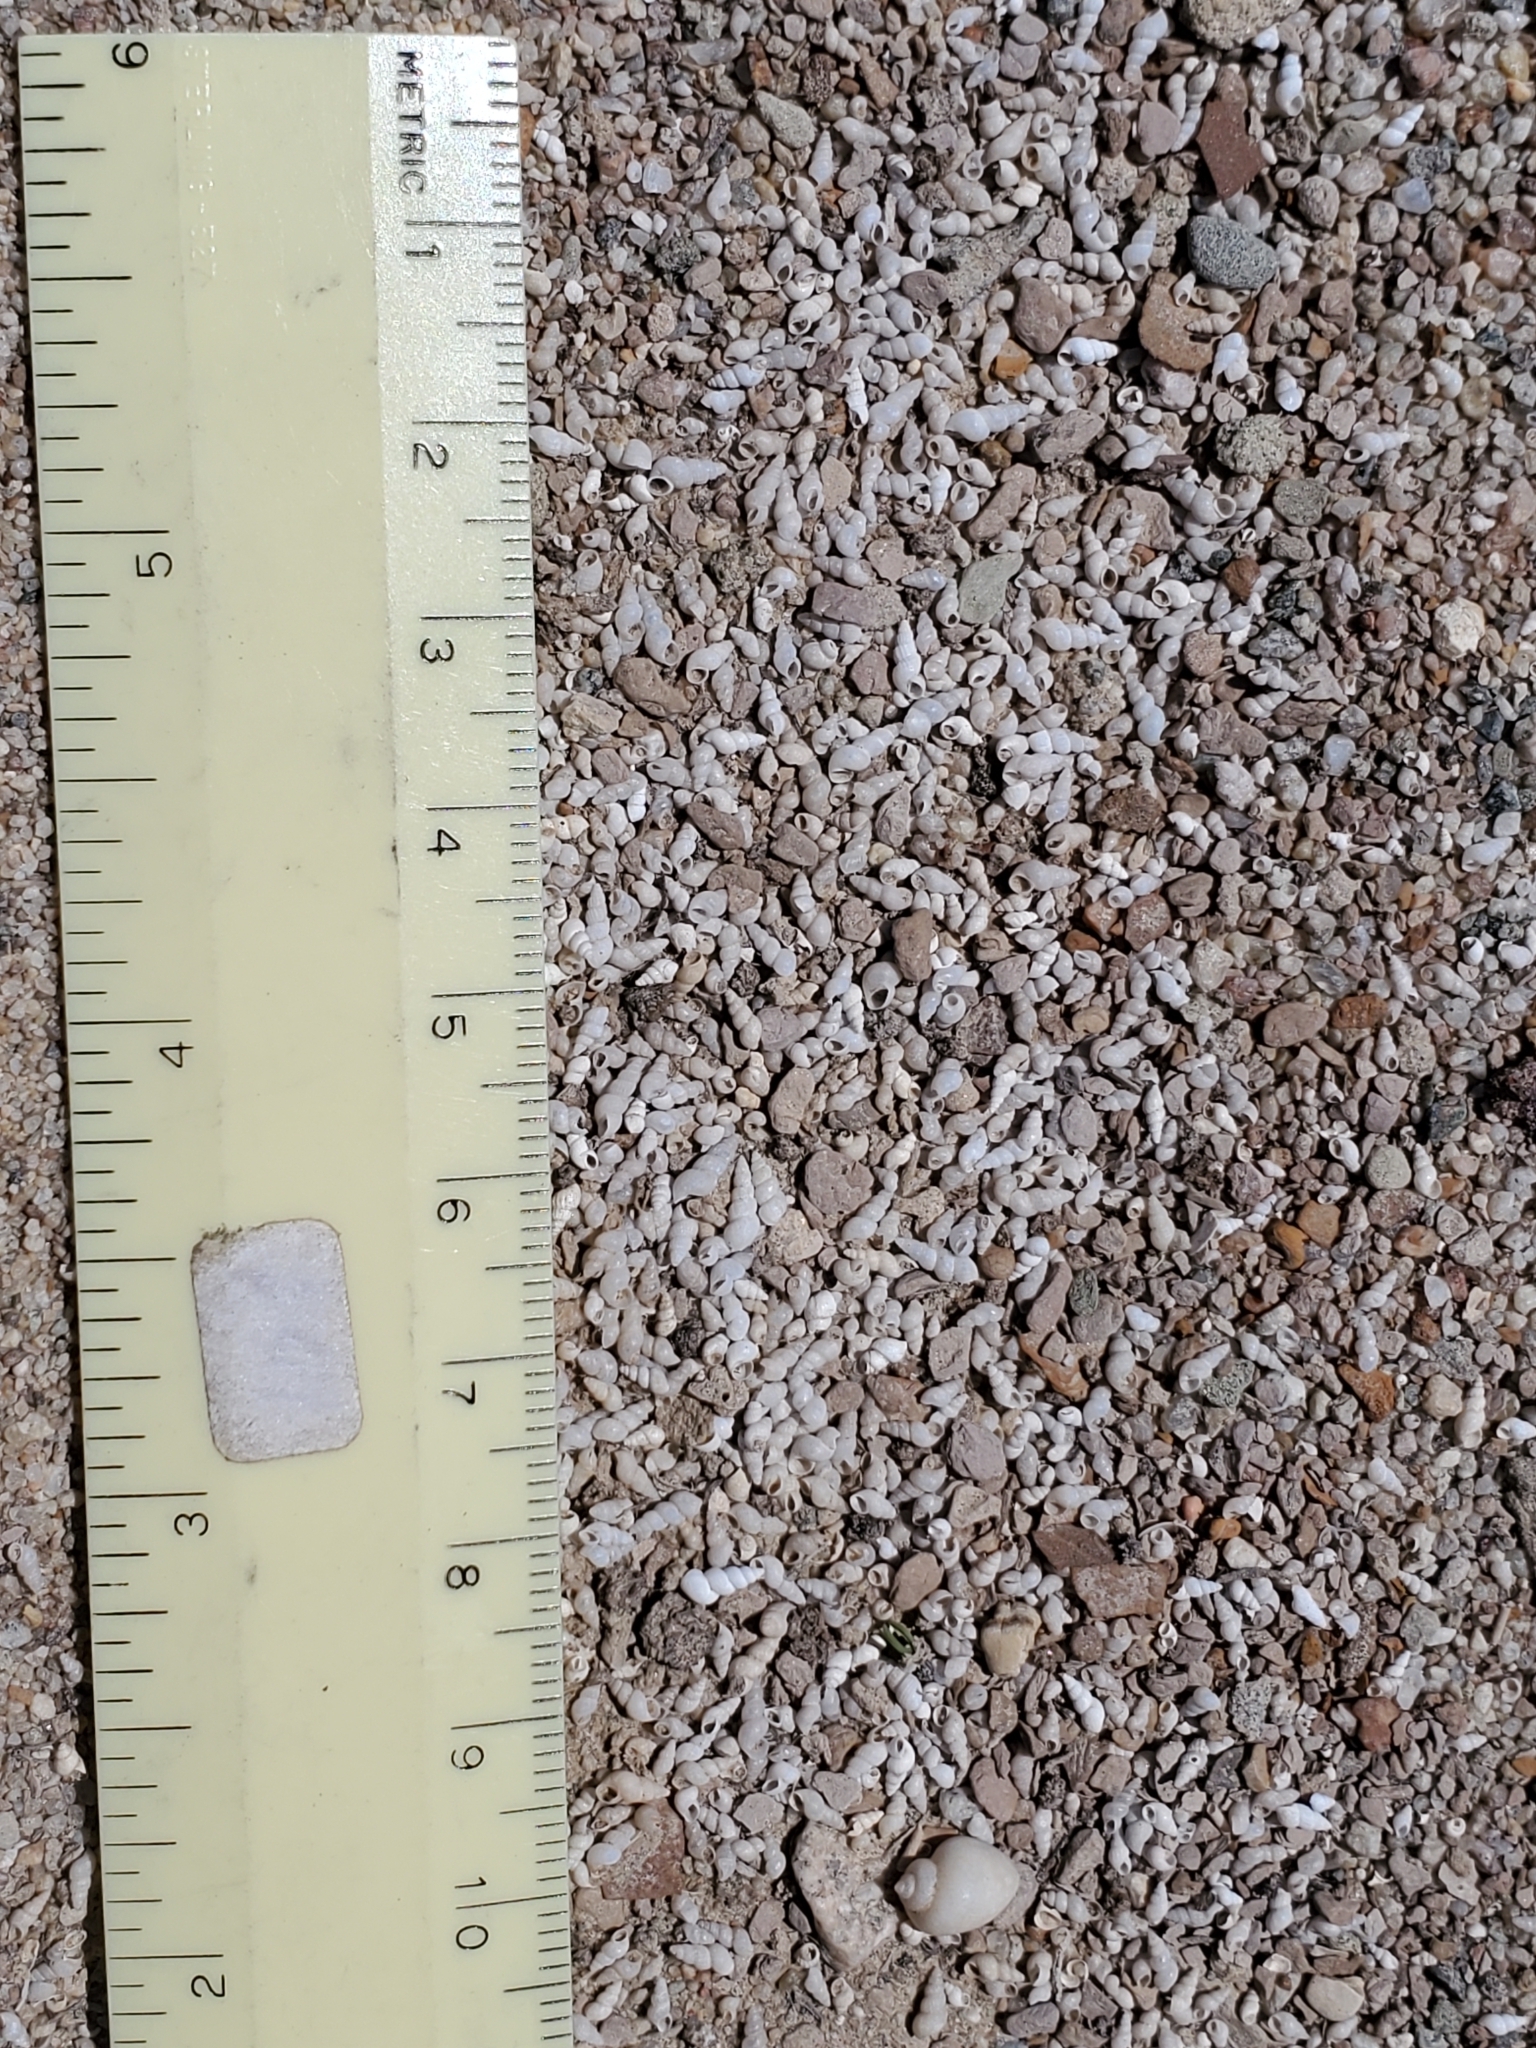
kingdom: Animalia
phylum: Mollusca
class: Gastropoda
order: Littorinimorpha
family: Cochliopidae
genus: Tryonia
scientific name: Tryonia porrecta
